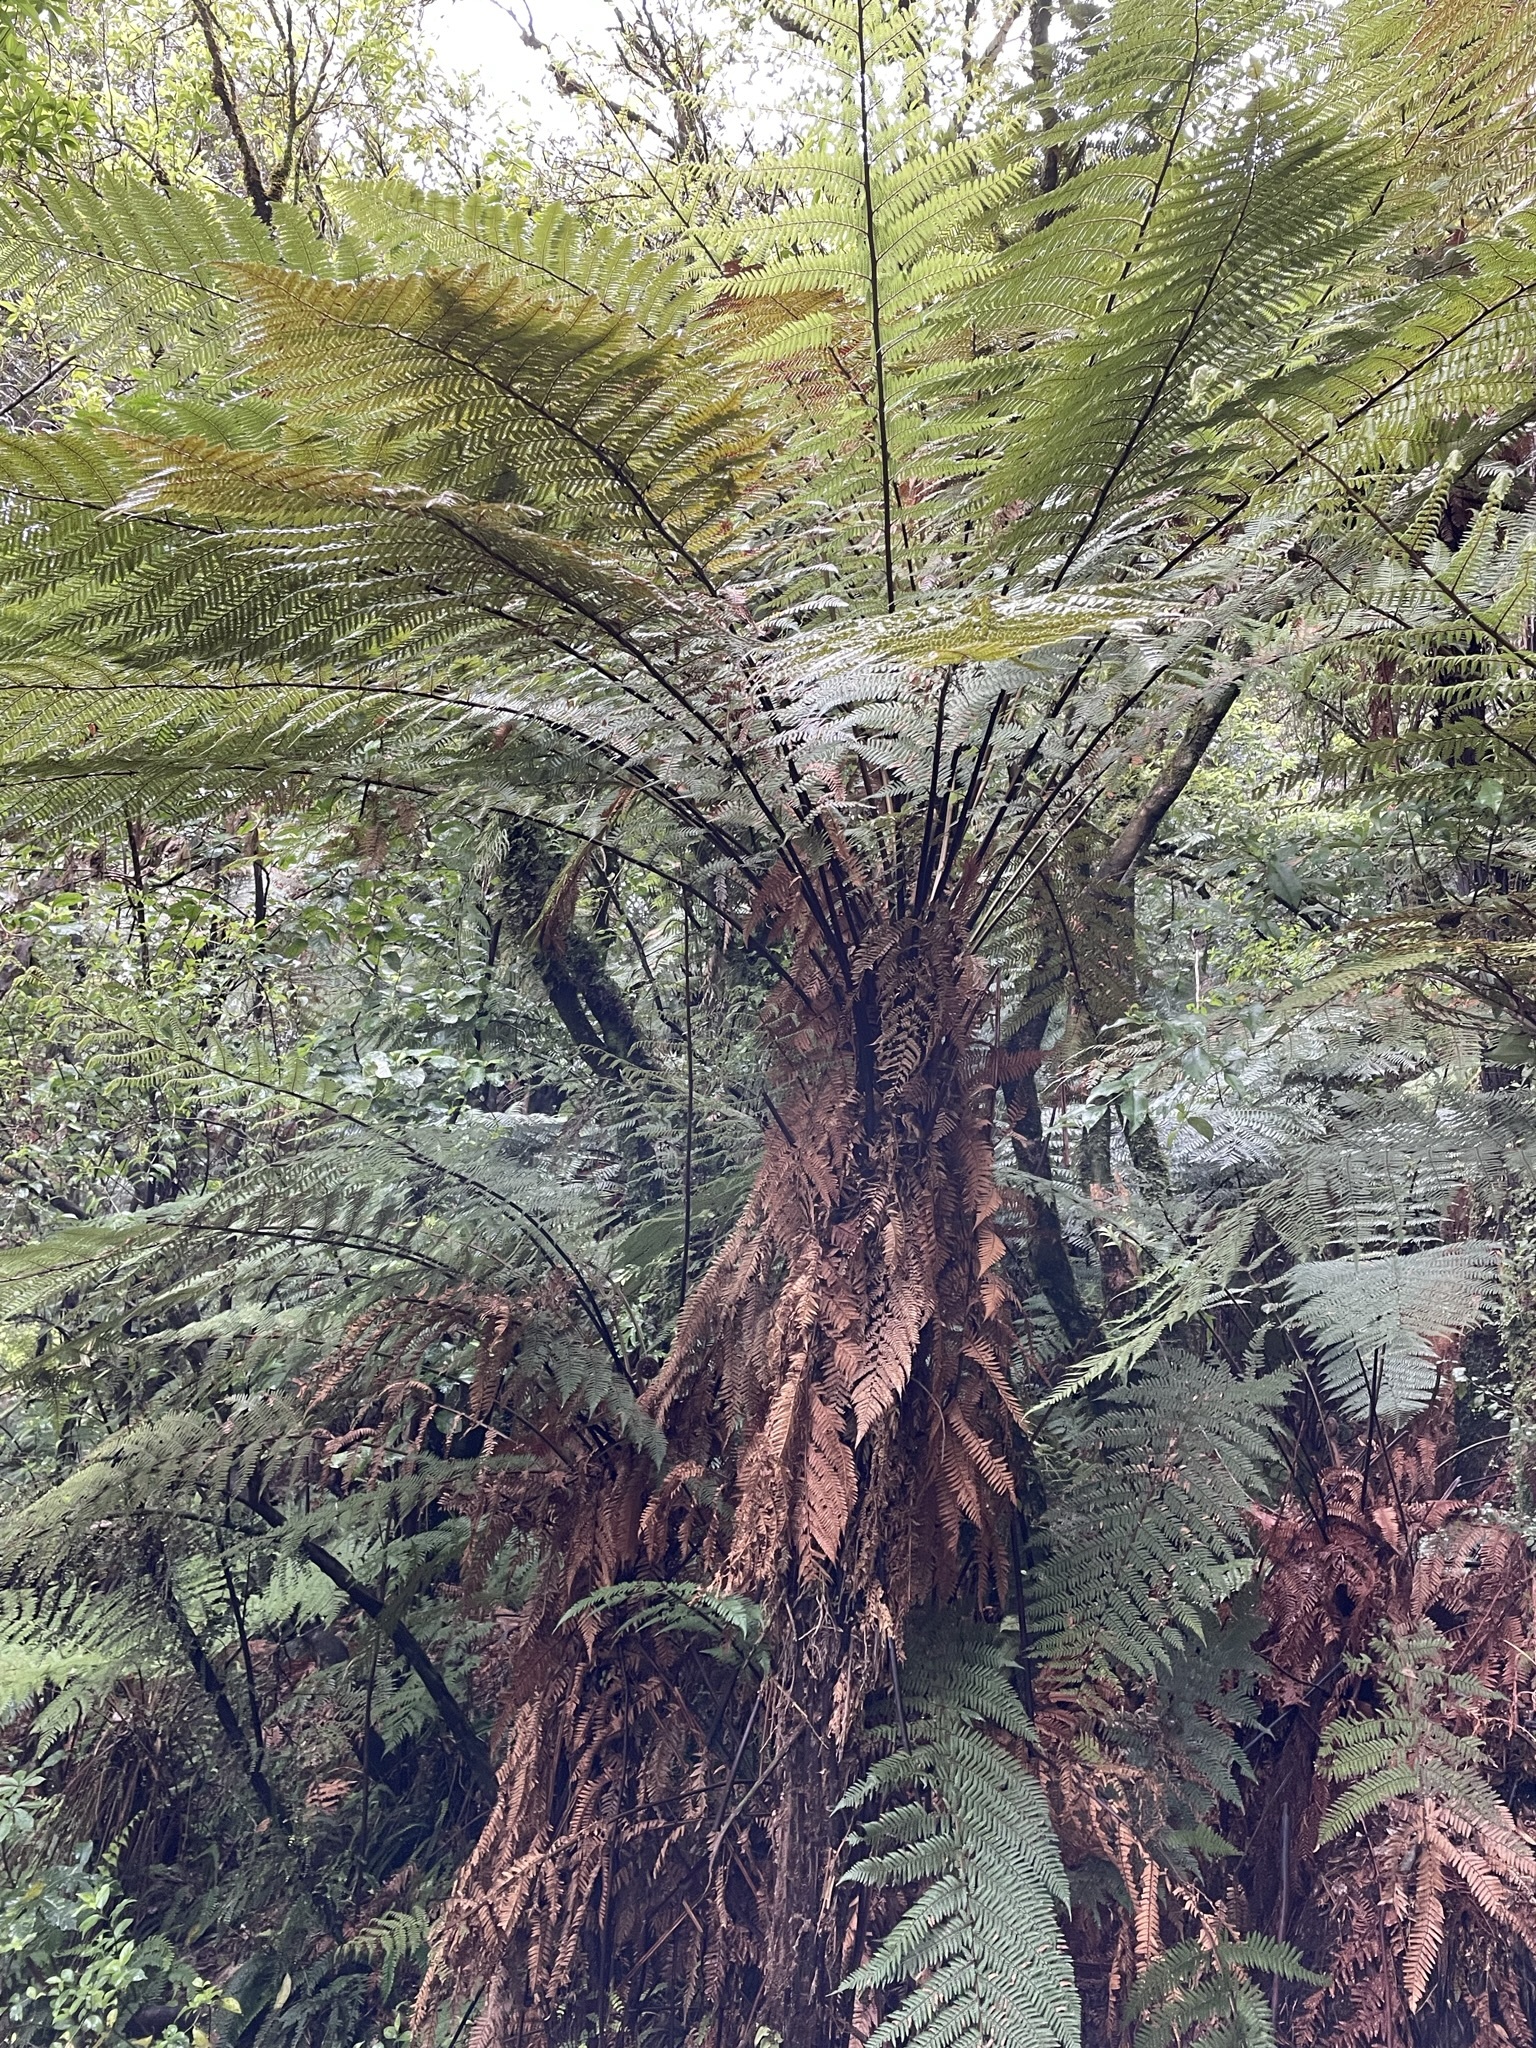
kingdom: Plantae
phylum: Tracheophyta
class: Polypodiopsida
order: Cyatheales
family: Dicksoniaceae
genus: Dicksonia
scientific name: Dicksonia squarrosa
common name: Hard treefern
